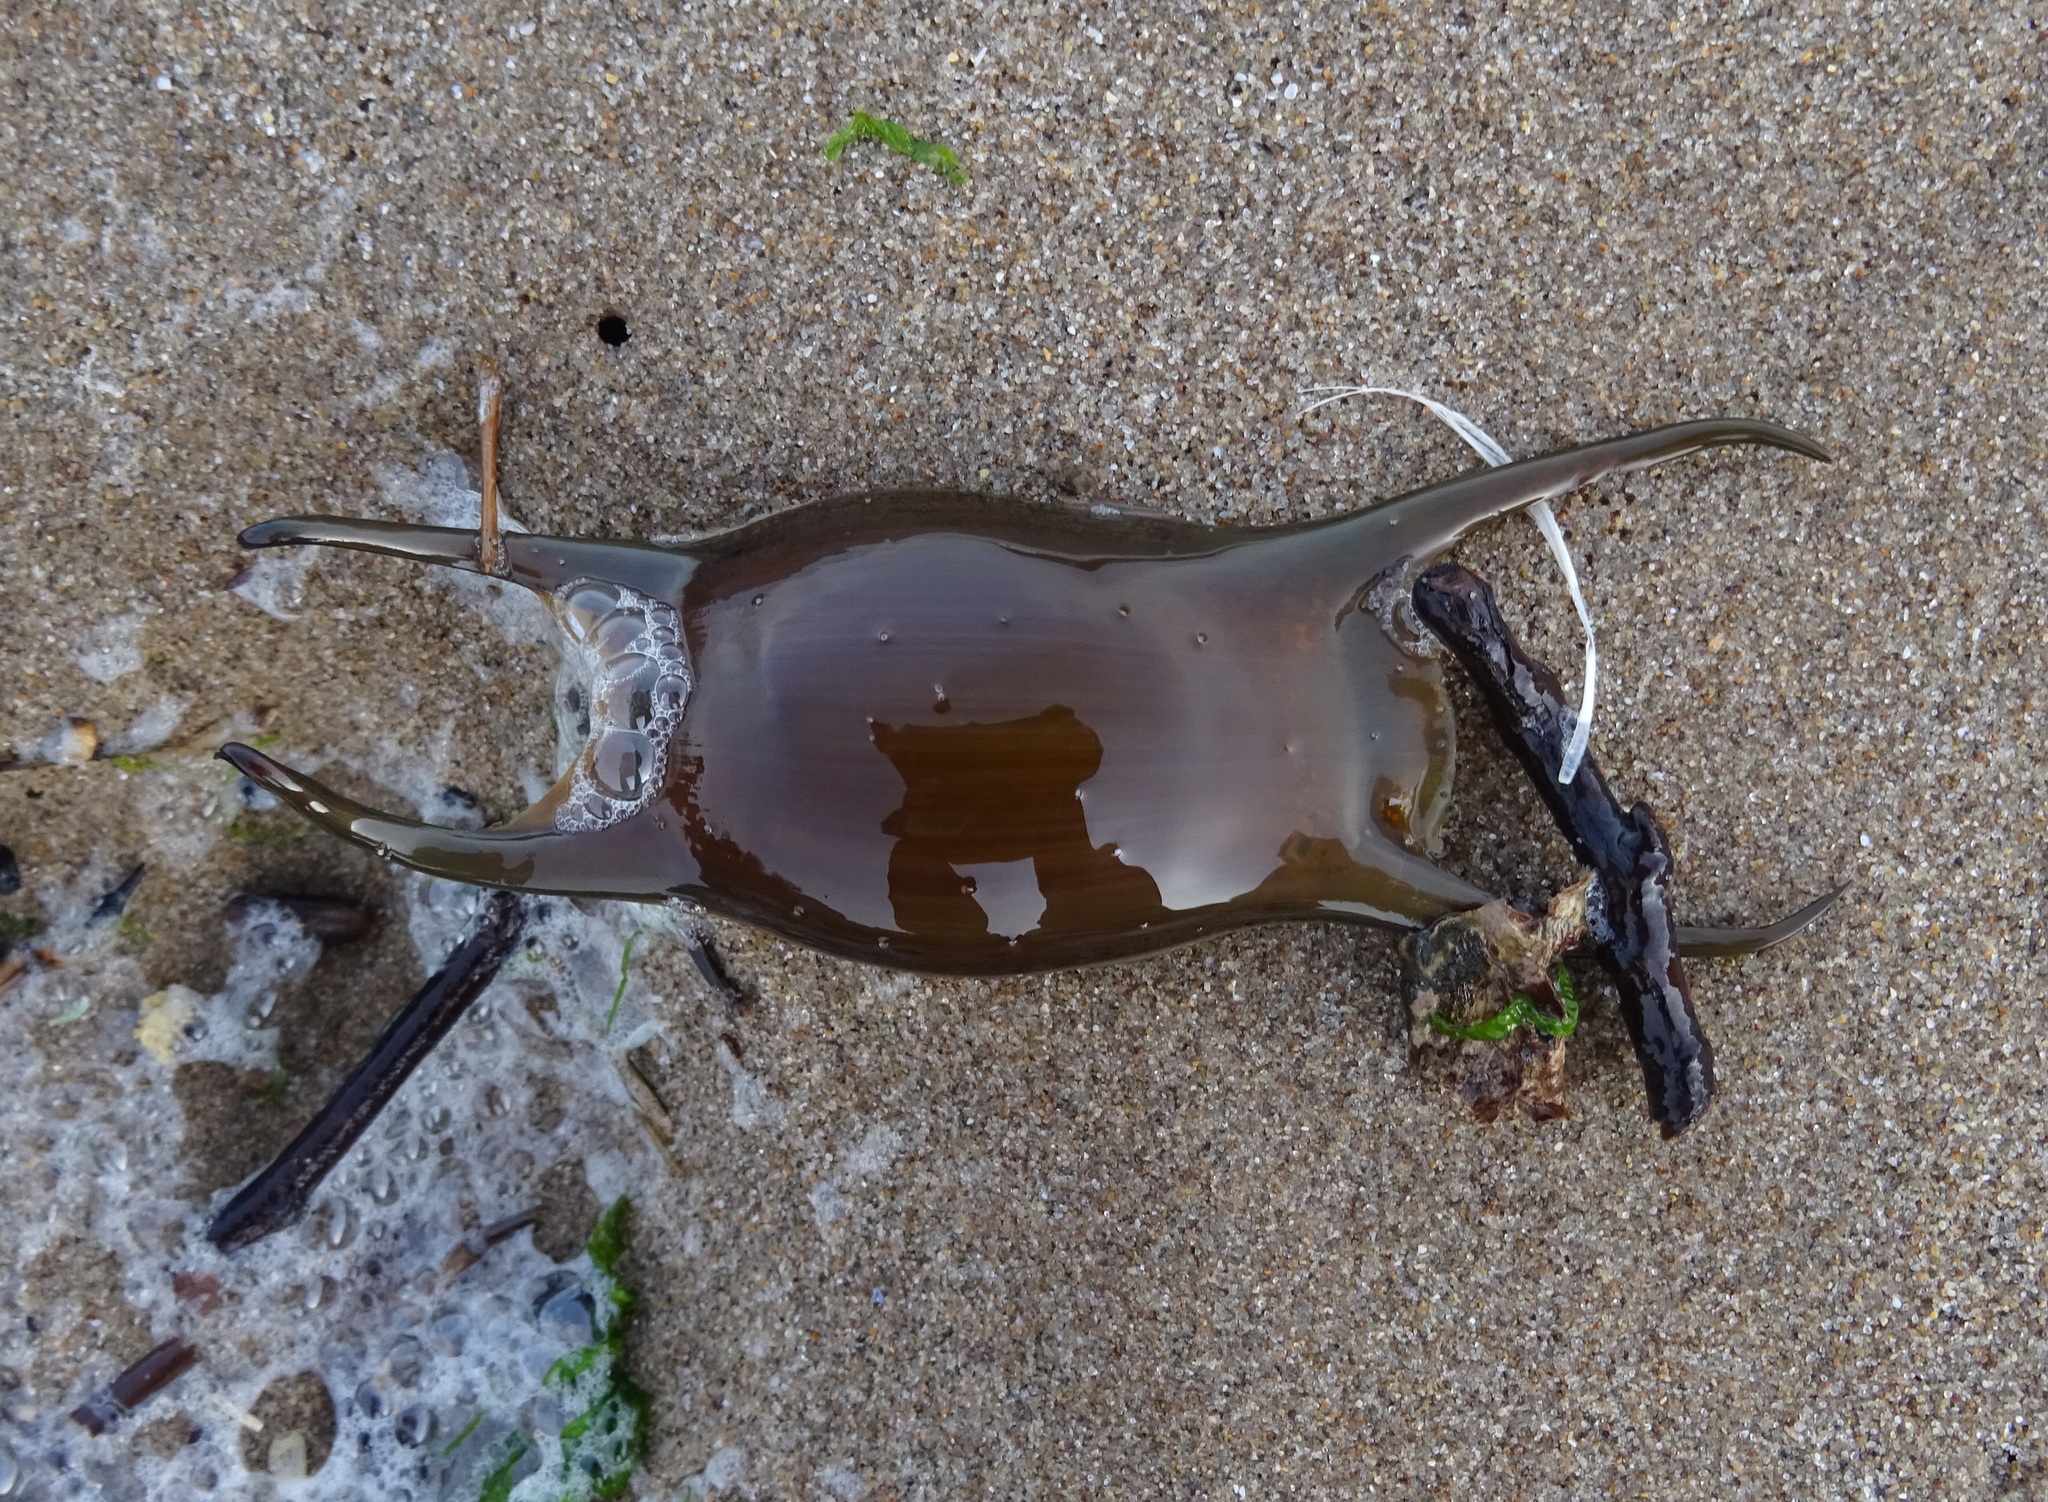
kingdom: Animalia
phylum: Chordata
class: Elasmobranchii
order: Rajiformes
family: Rajidae
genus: Raja
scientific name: Raja montagui
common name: Spotted ray
